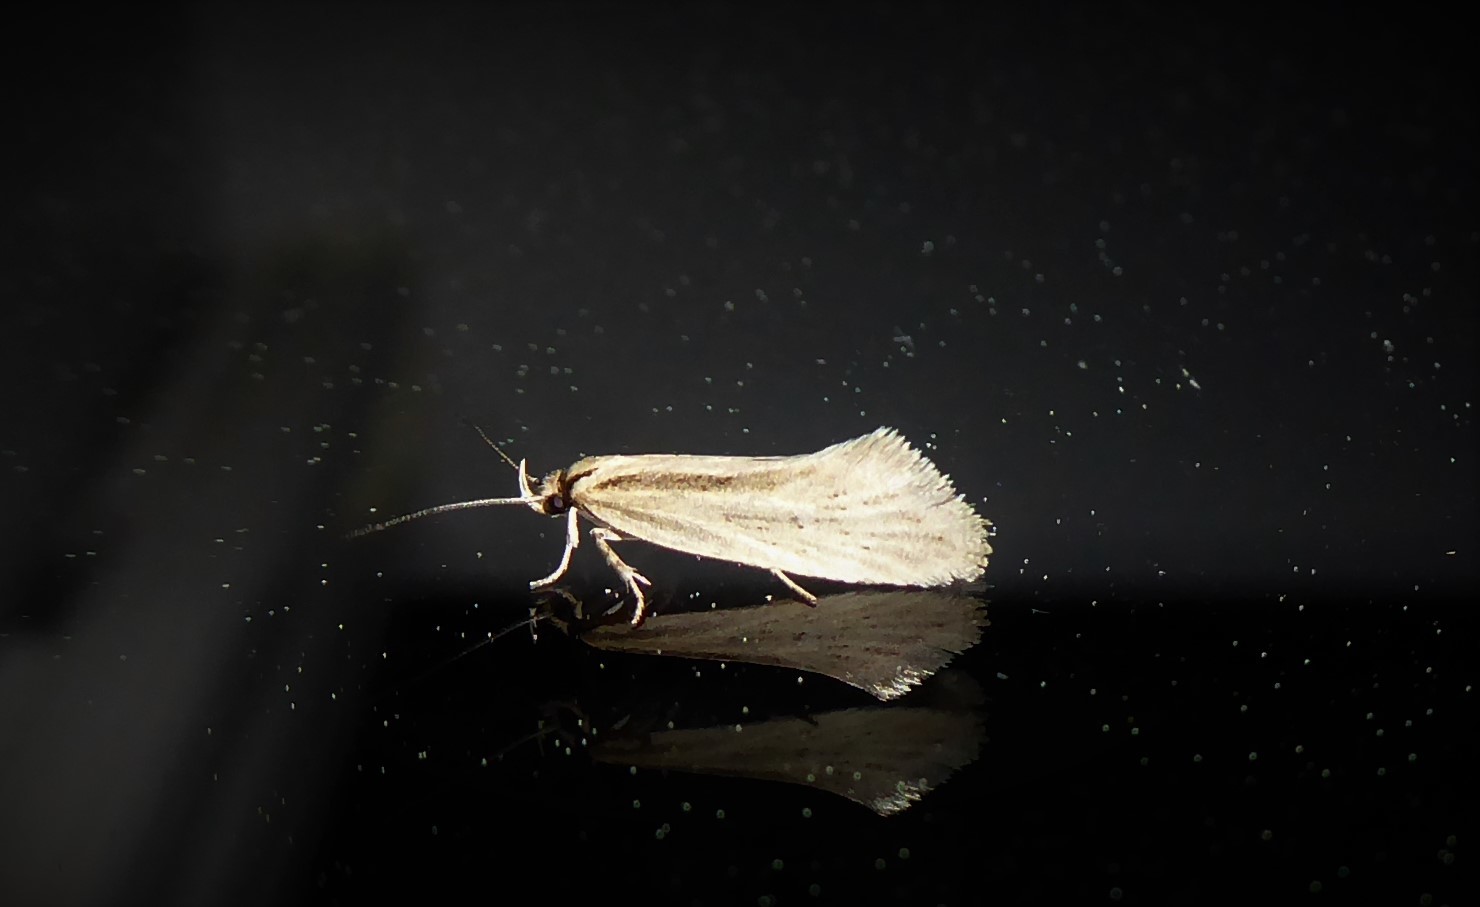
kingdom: Animalia
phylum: Arthropoda
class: Insecta
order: Lepidoptera
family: Oecophoridae
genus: Tingena
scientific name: Tingena chloradelpha
